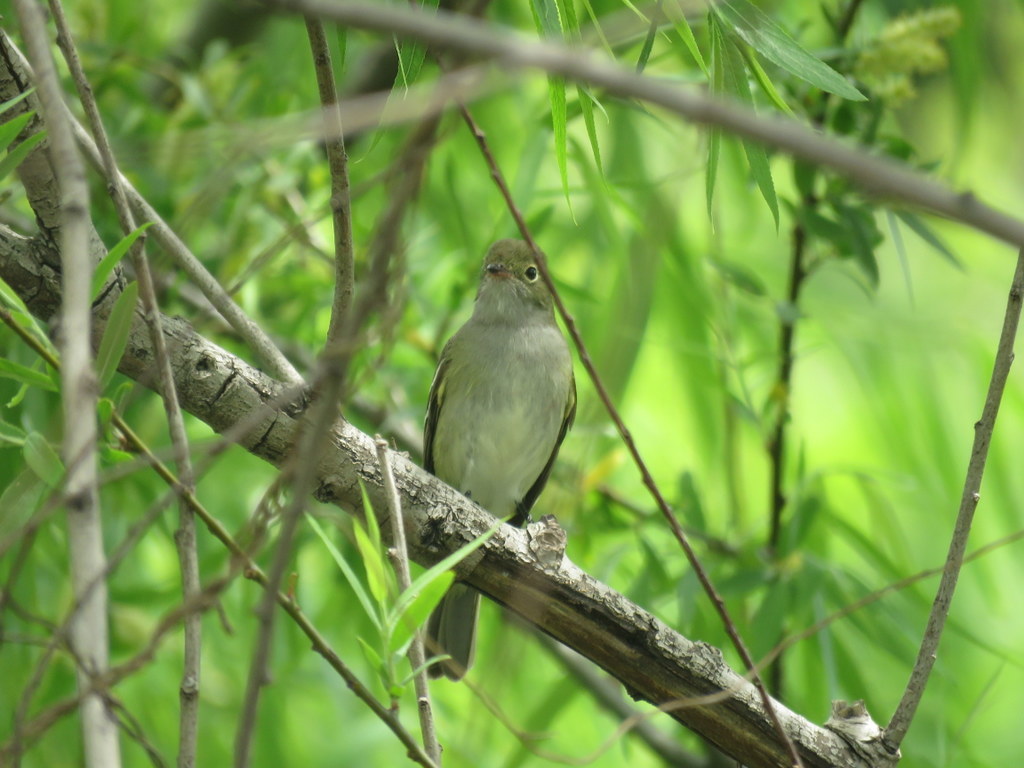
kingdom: Animalia
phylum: Chordata
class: Aves
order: Passeriformes
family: Tyrannidae
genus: Elaenia
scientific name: Elaenia parvirostris
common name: Small-billed elaenia
